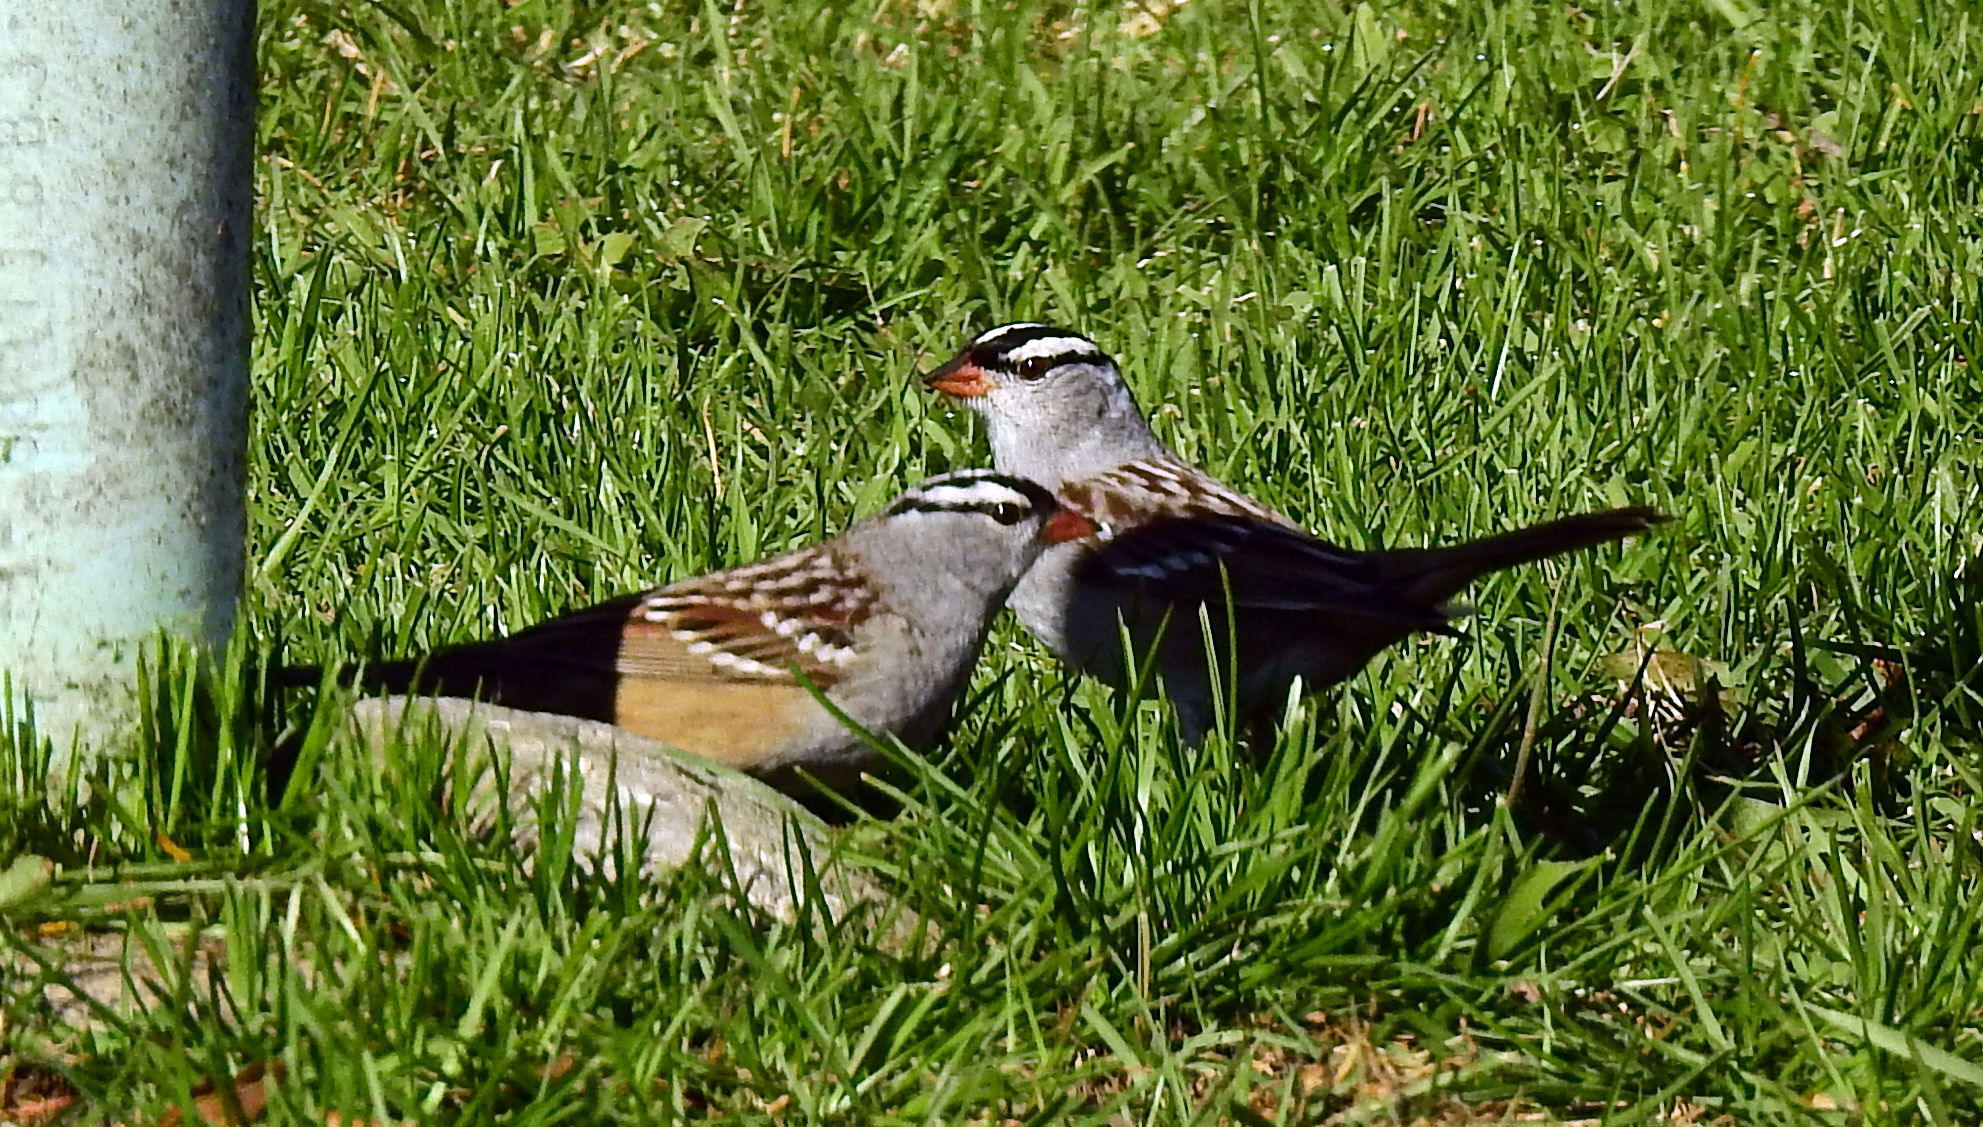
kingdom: Animalia
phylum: Chordata
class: Aves
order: Passeriformes
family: Passerellidae
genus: Zonotrichia
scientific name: Zonotrichia leucophrys
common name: White-crowned sparrow
